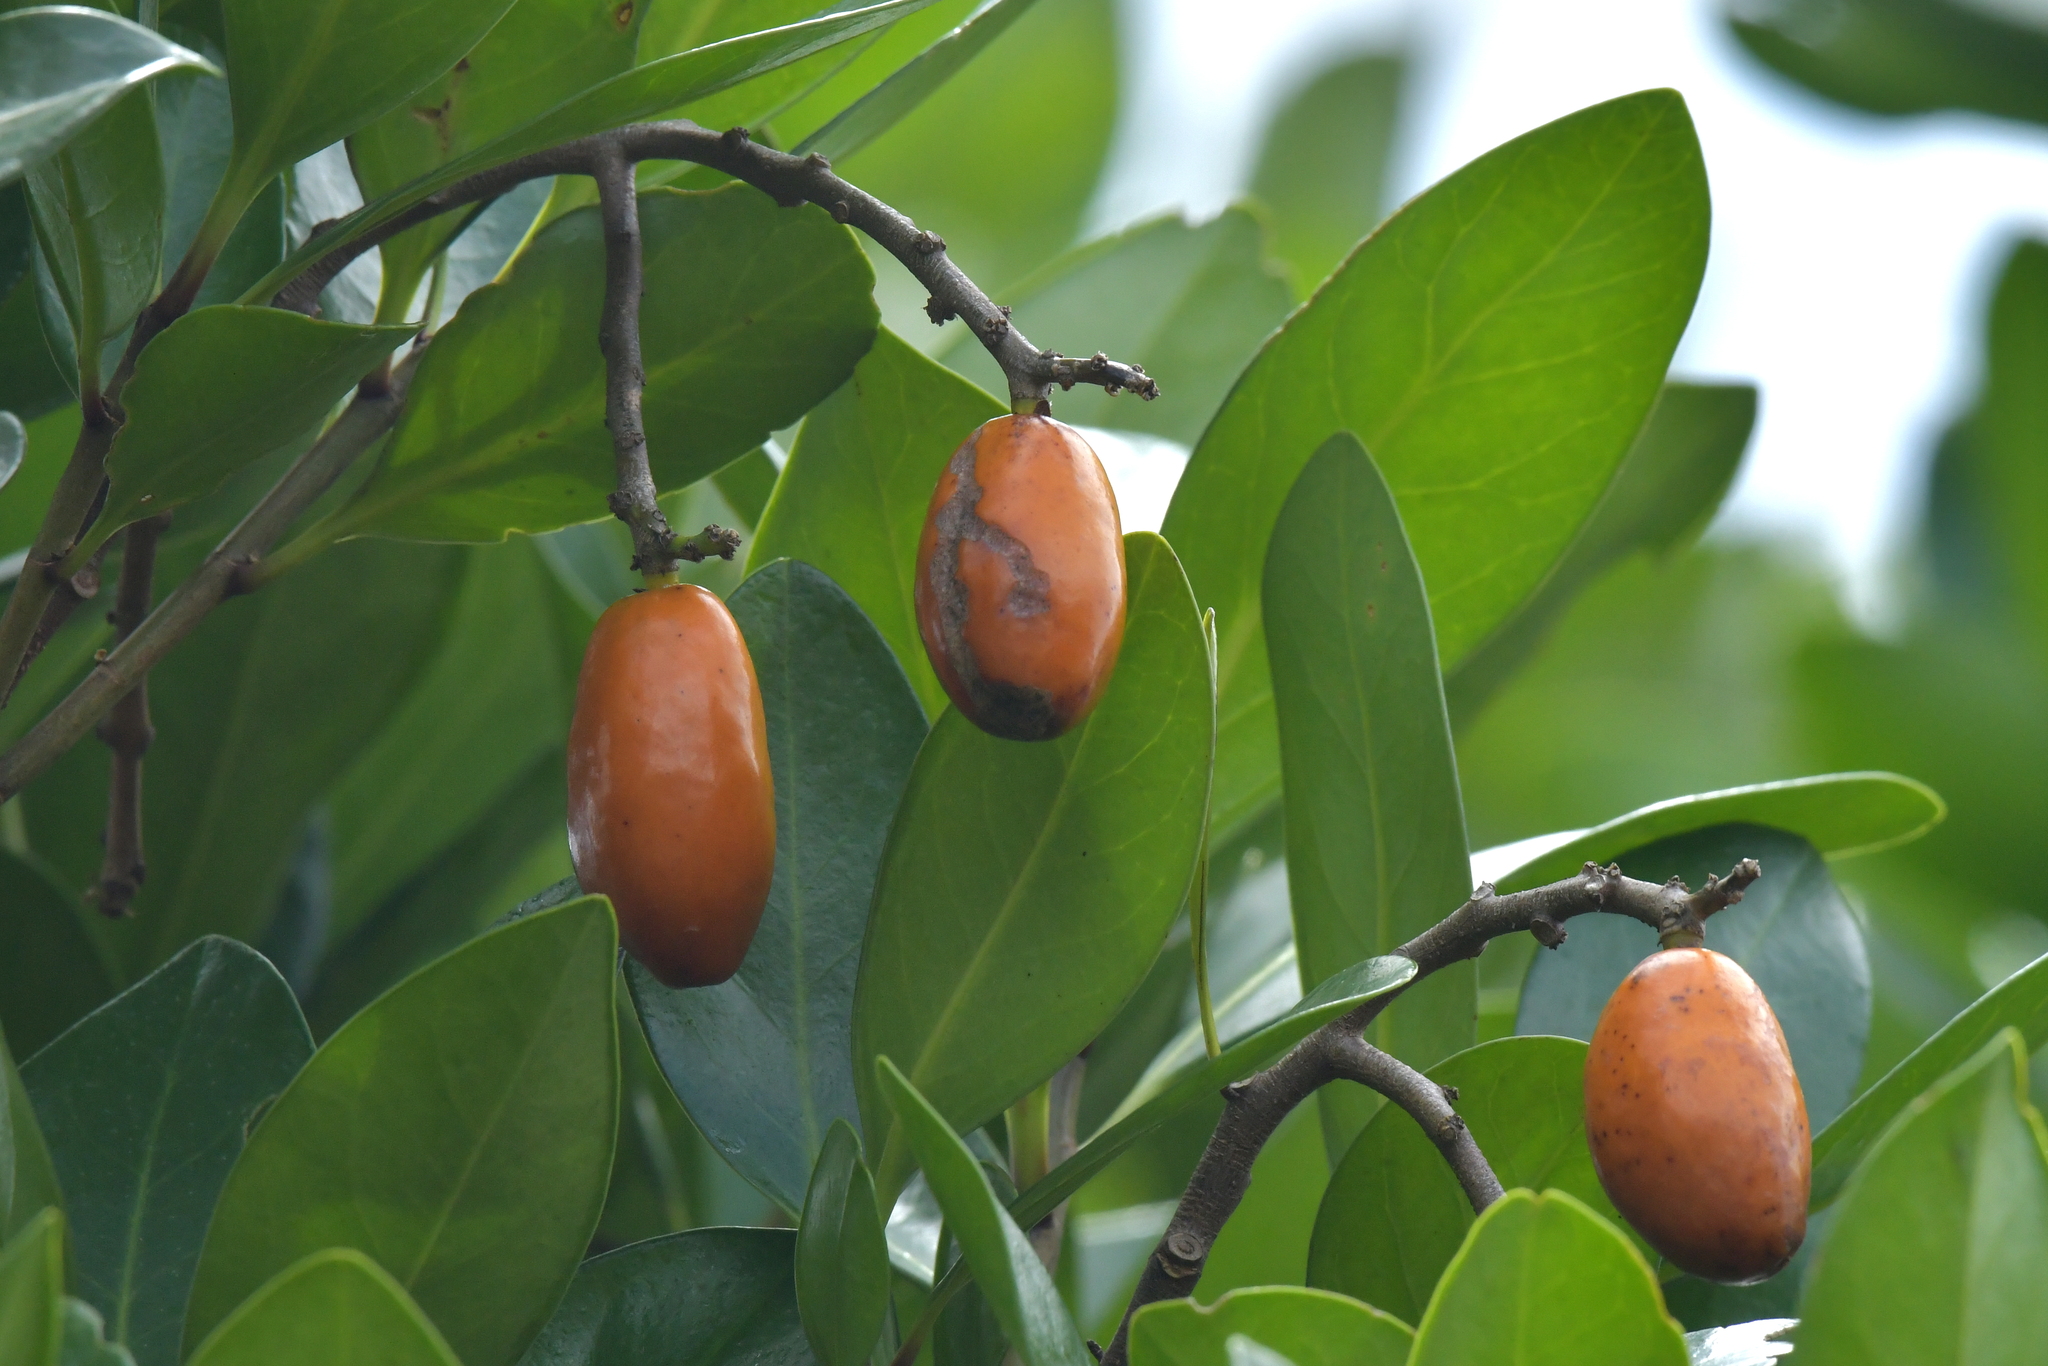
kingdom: Plantae
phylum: Tracheophyta
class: Magnoliopsida
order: Cucurbitales
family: Corynocarpaceae
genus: Corynocarpus
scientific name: Corynocarpus laevigatus
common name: New zealand laurel
